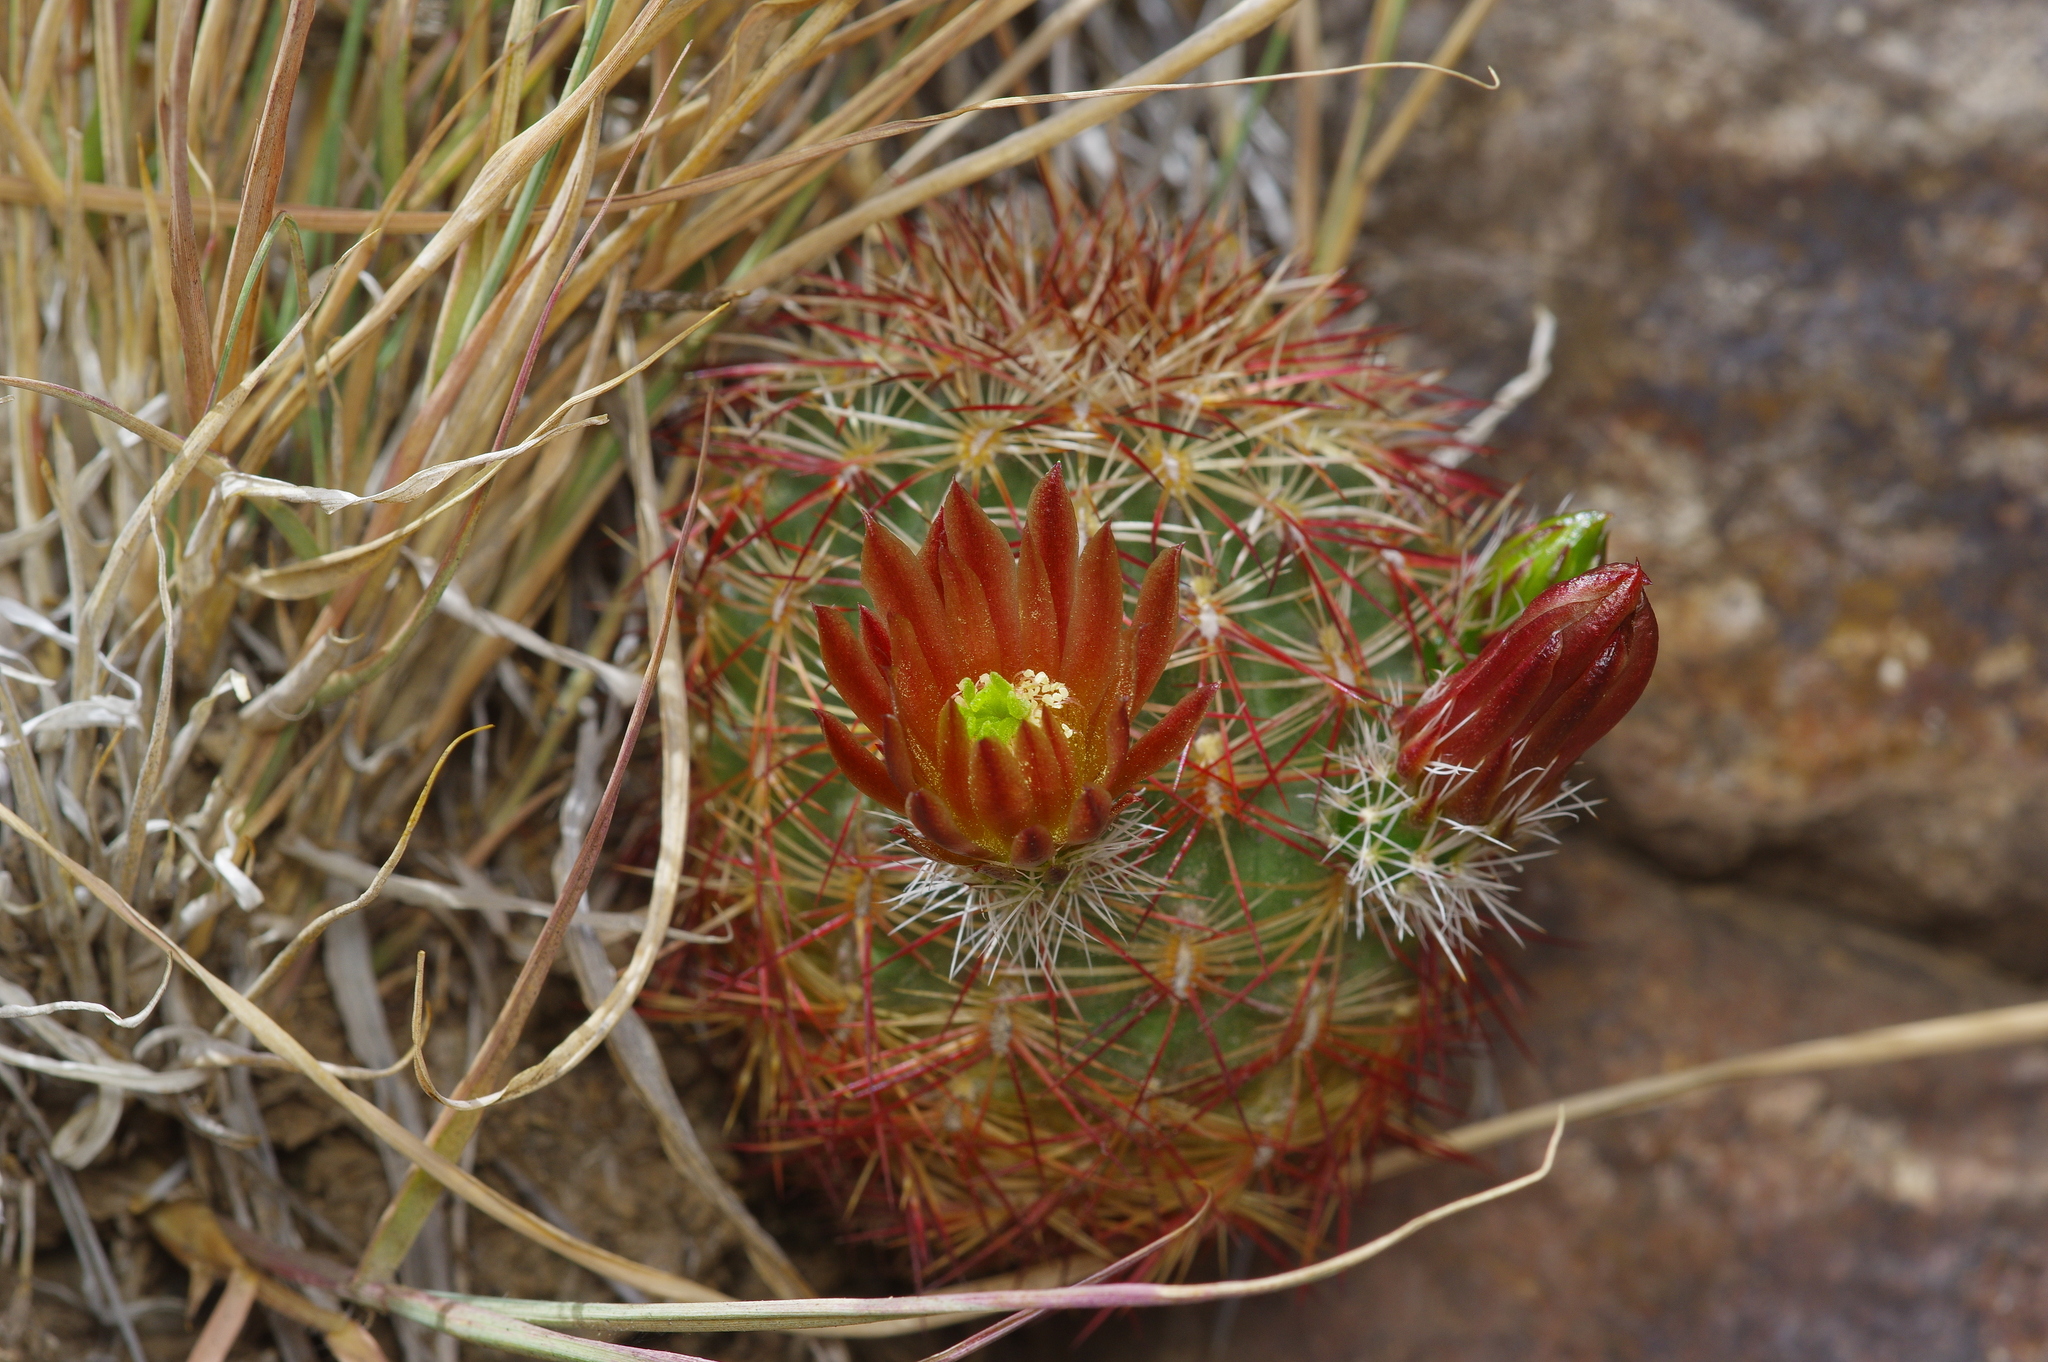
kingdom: Plantae
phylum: Tracheophyta
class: Magnoliopsida
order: Caryophyllales
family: Cactaceae
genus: Echinocereus
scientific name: Echinocereus viridiflorus
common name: Nylon hedgehog cactus
